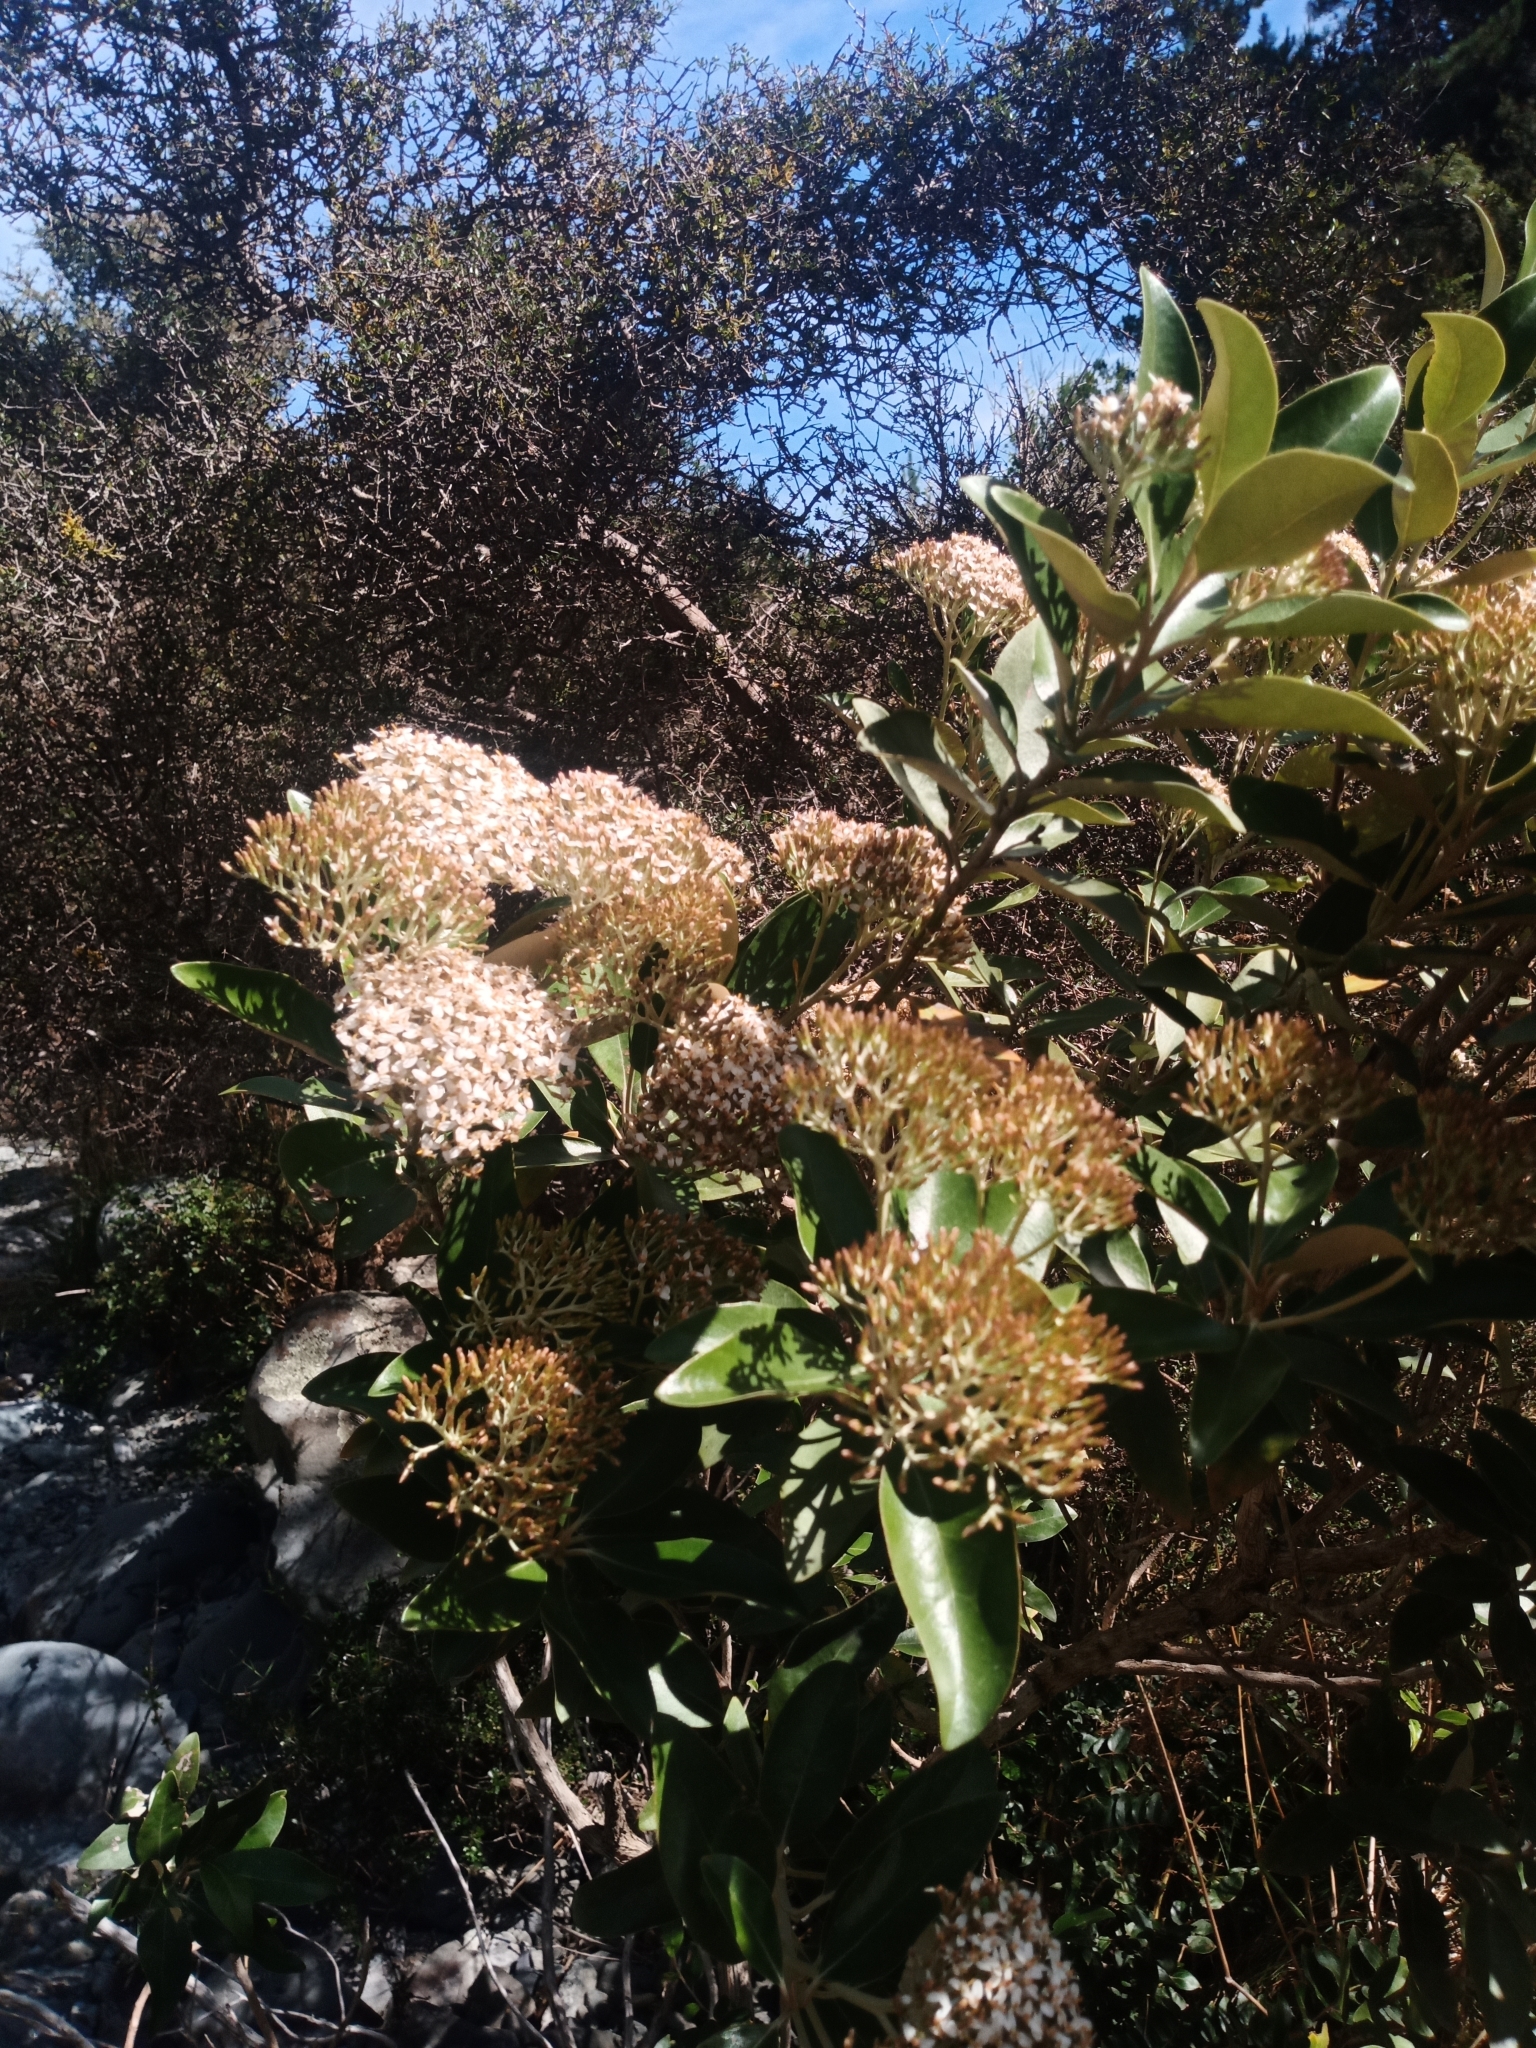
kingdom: Plantae
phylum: Tracheophyta
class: Magnoliopsida
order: Asterales
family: Asteraceae
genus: Olearia
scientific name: Olearia avicenniifolia
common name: Mangrove-leaf daisybush
